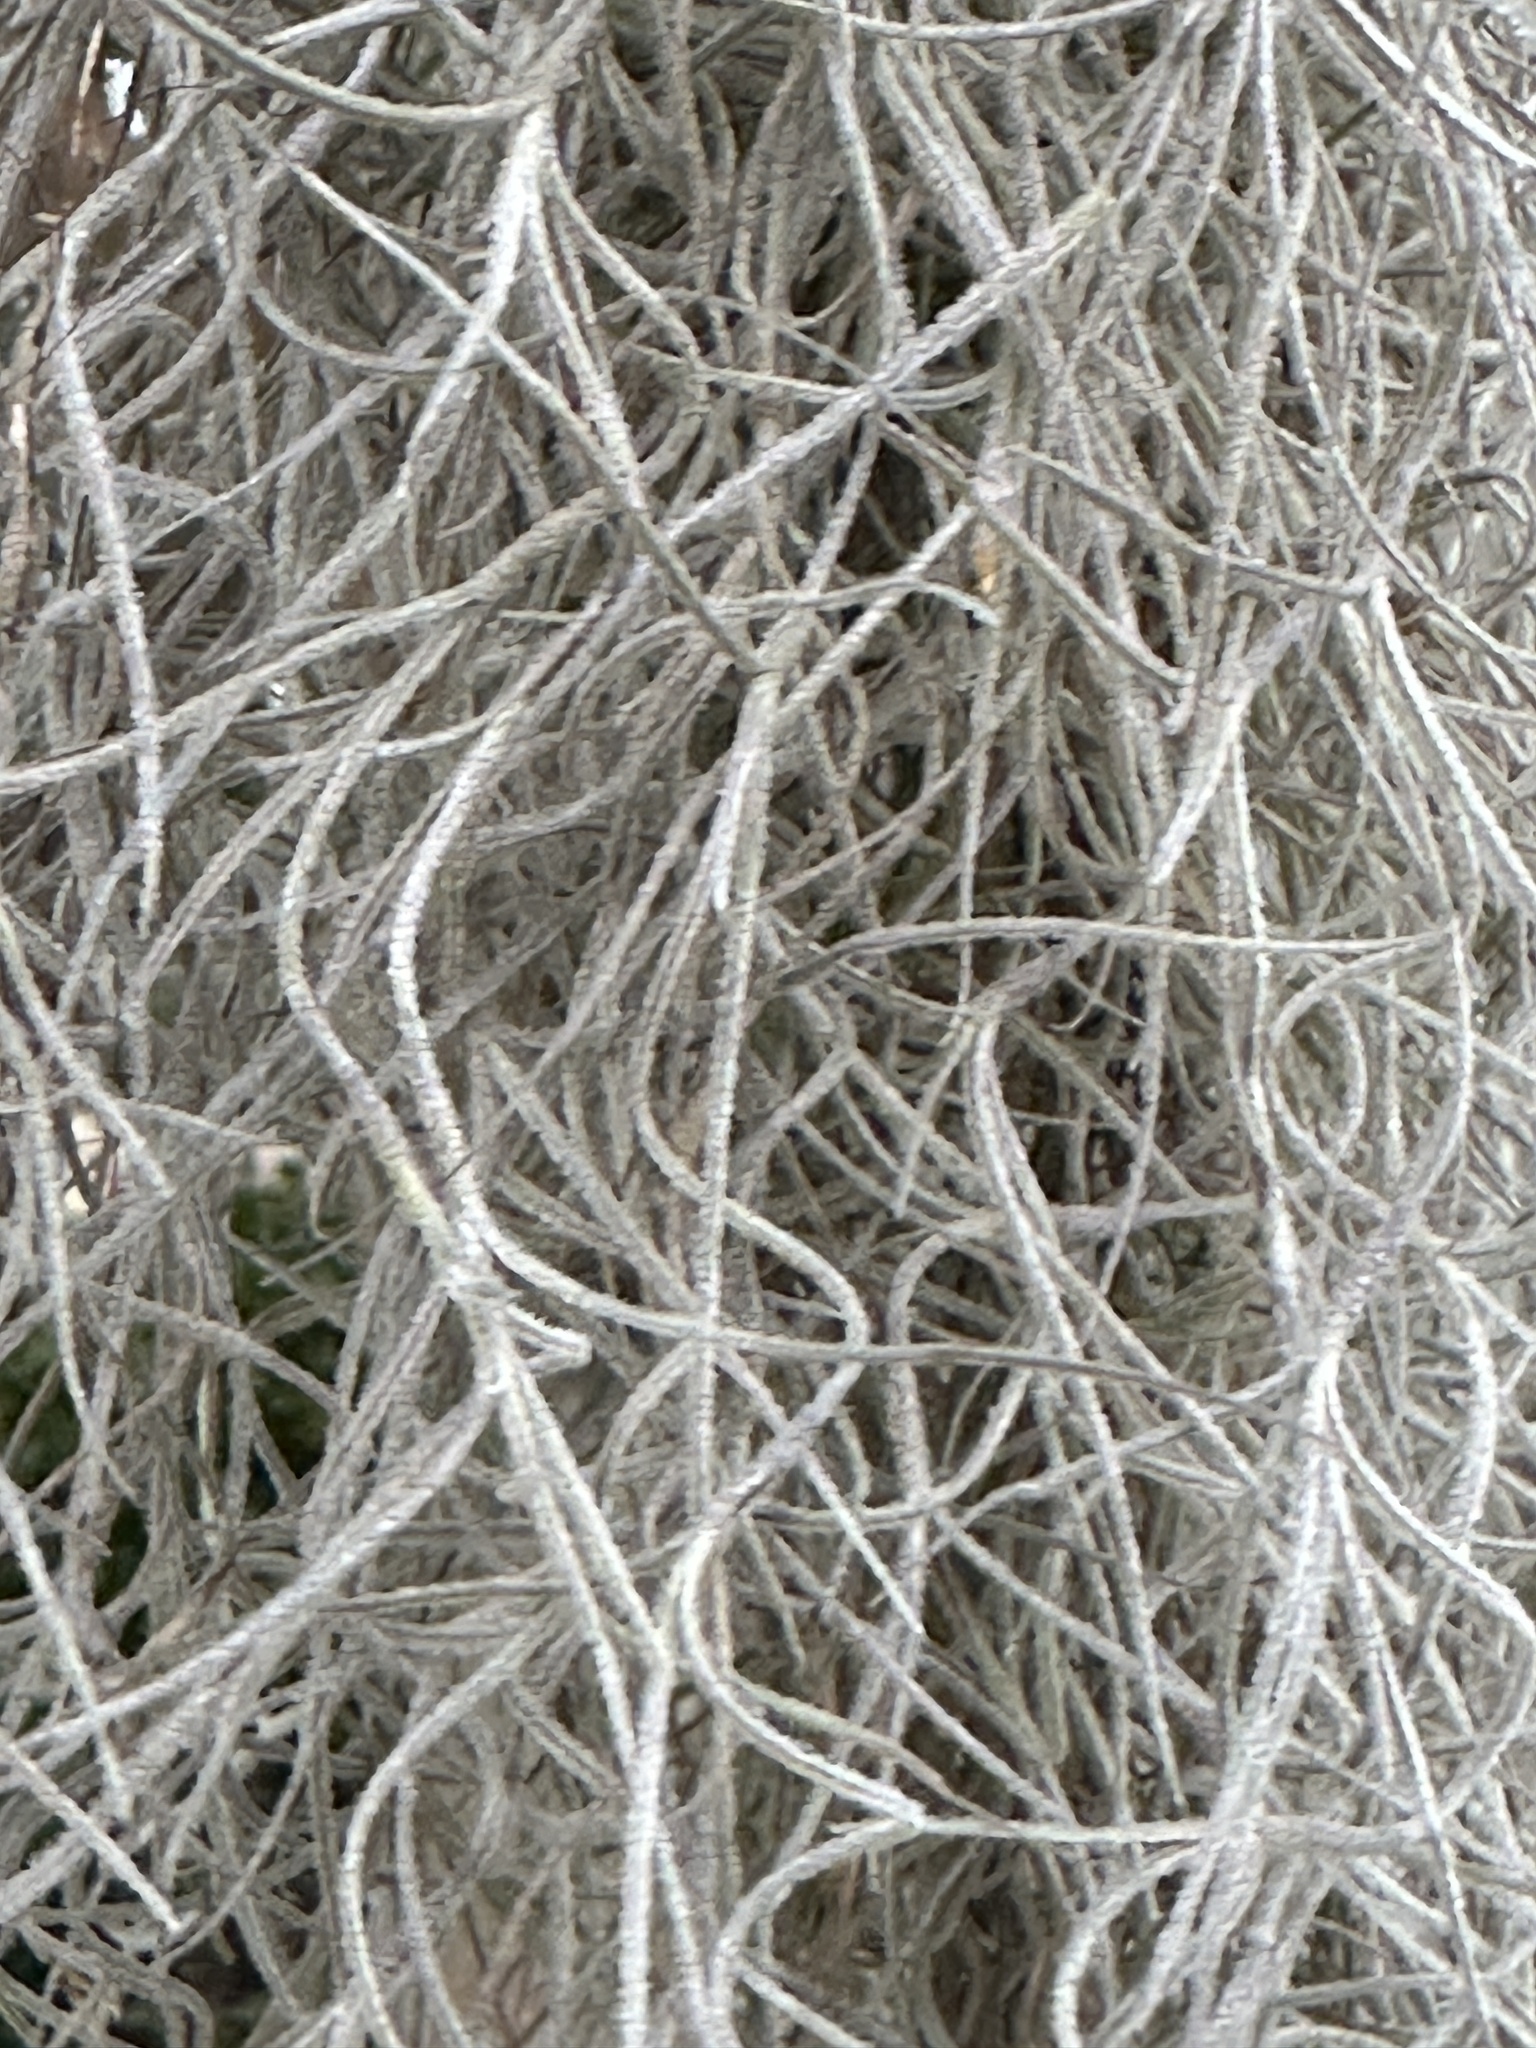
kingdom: Plantae
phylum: Tracheophyta
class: Liliopsida
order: Poales
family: Bromeliaceae
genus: Tillandsia
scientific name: Tillandsia usneoides
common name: Spanish moss
